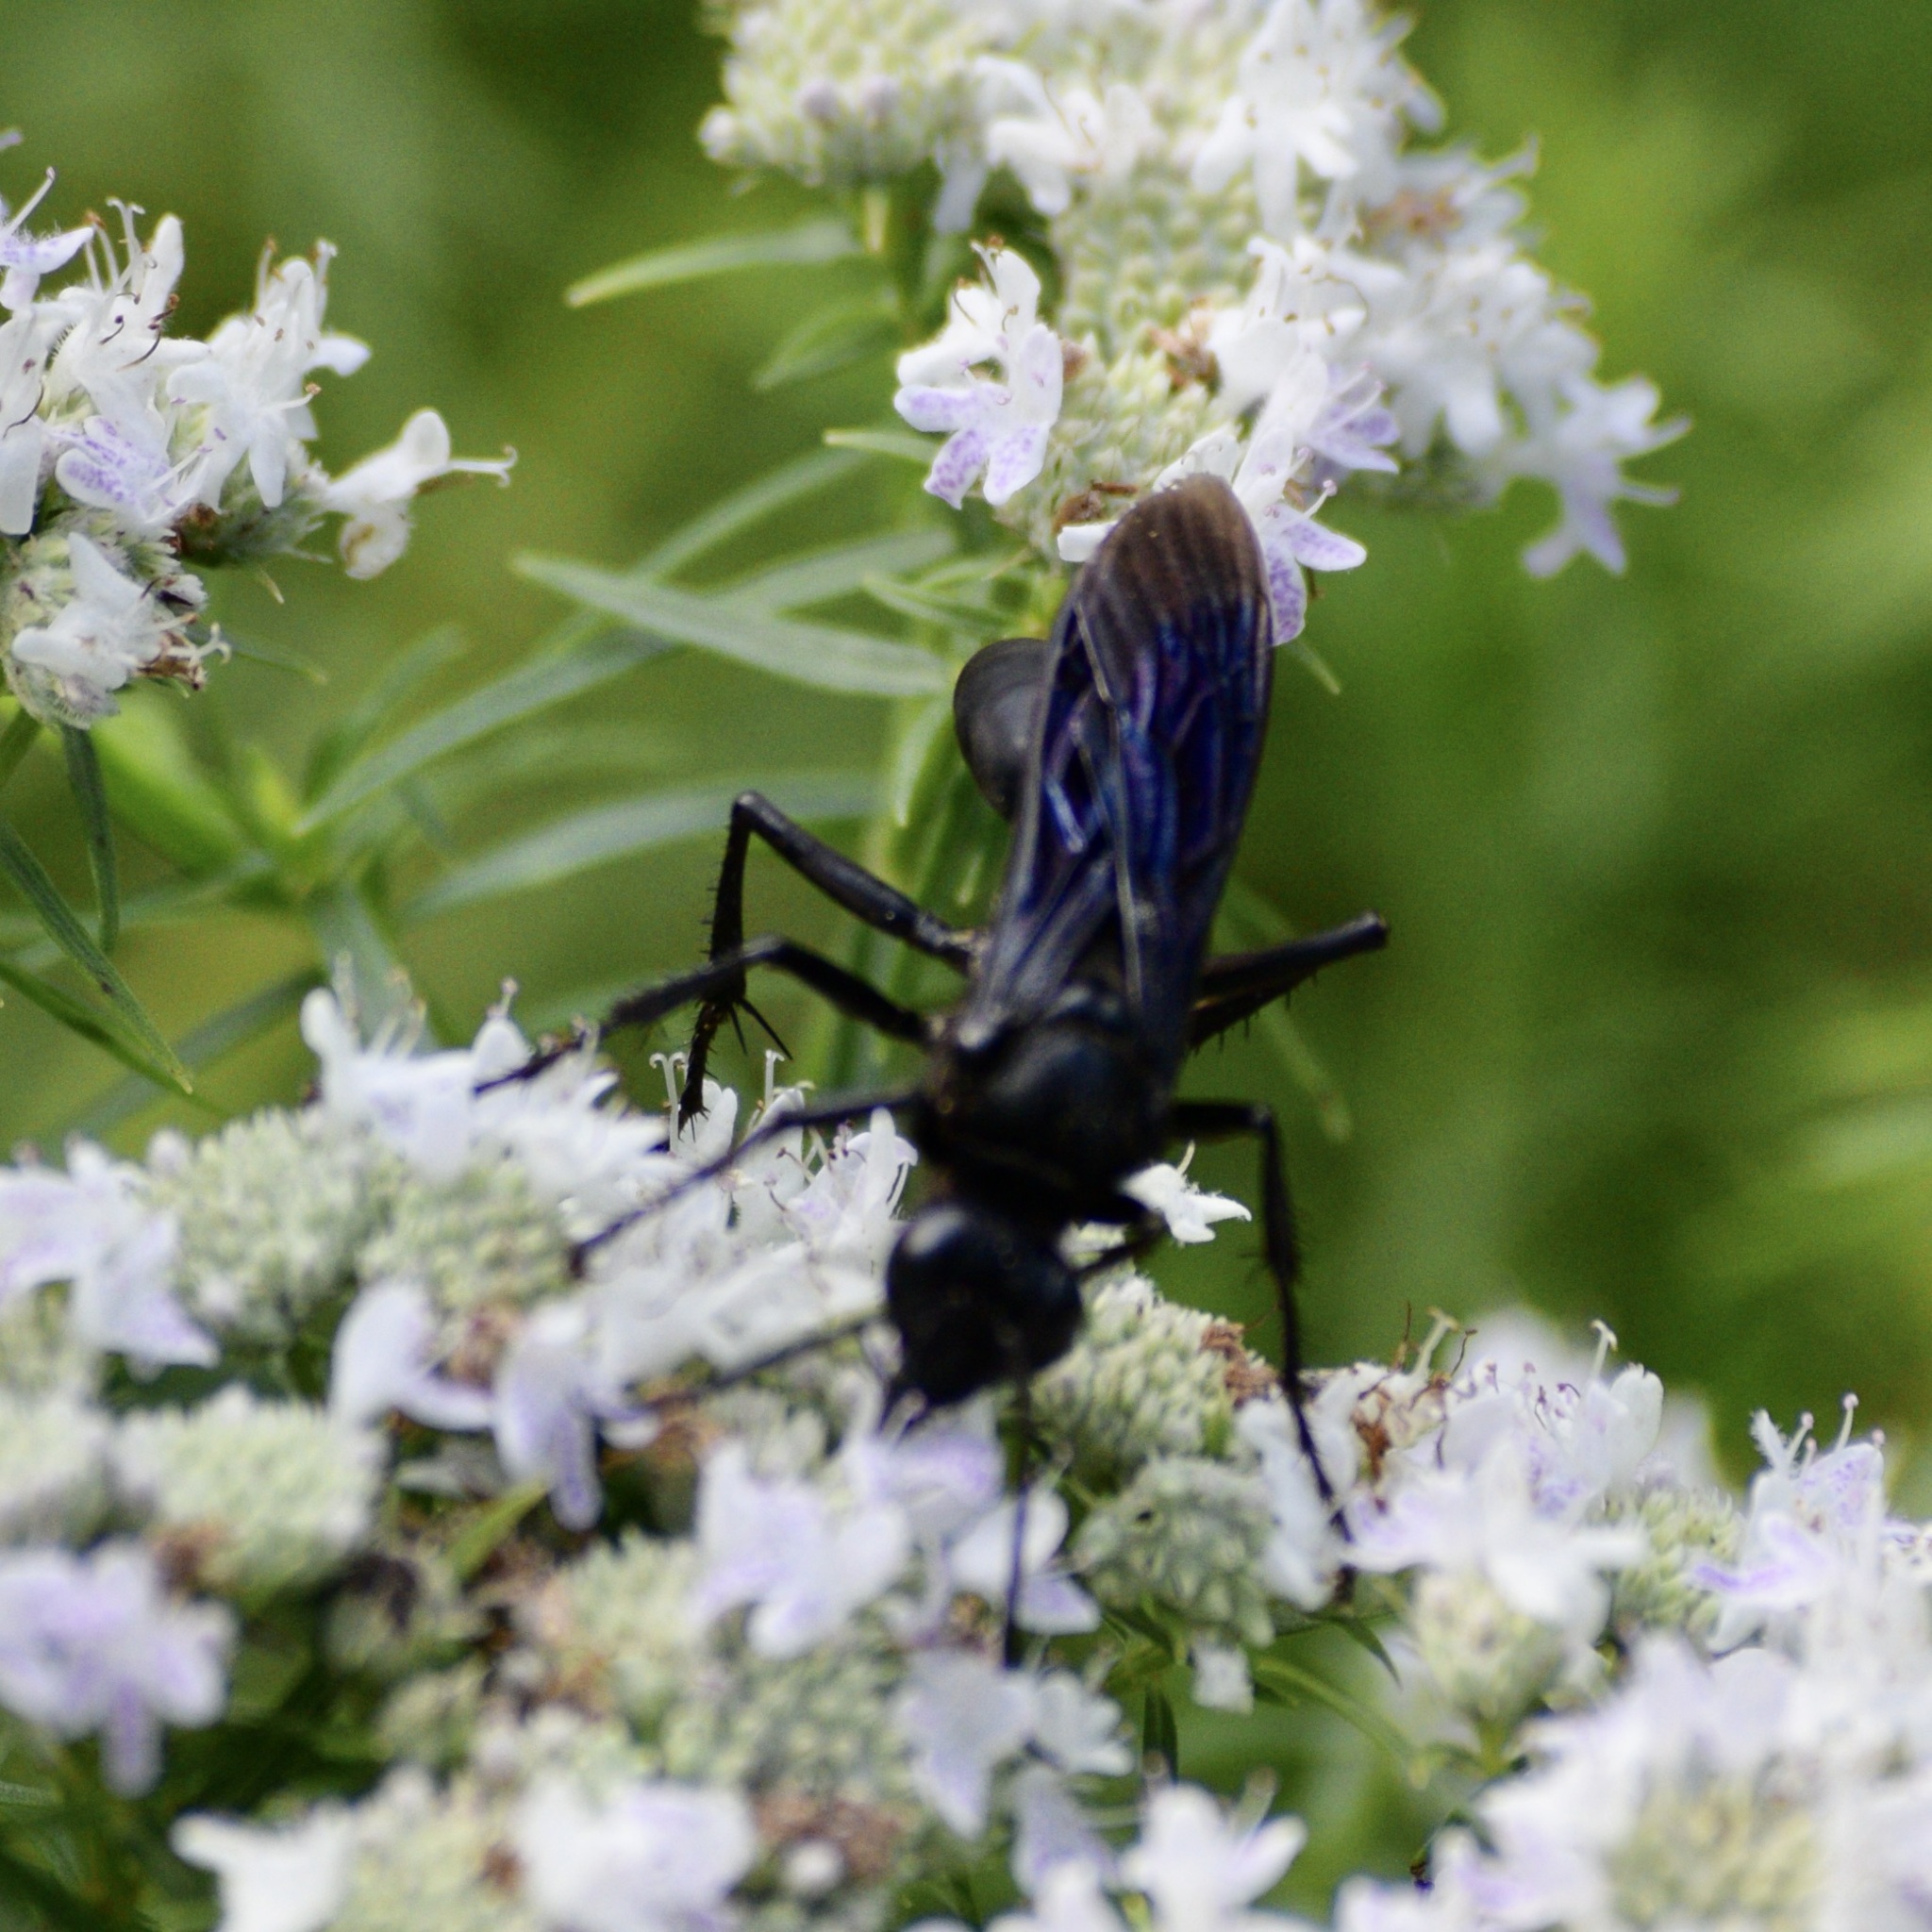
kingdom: Animalia
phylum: Arthropoda
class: Insecta
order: Hymenoptera
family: Sphecidae
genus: Sphex
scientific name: Sphex pensylvanicus
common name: Great black digger wasp
